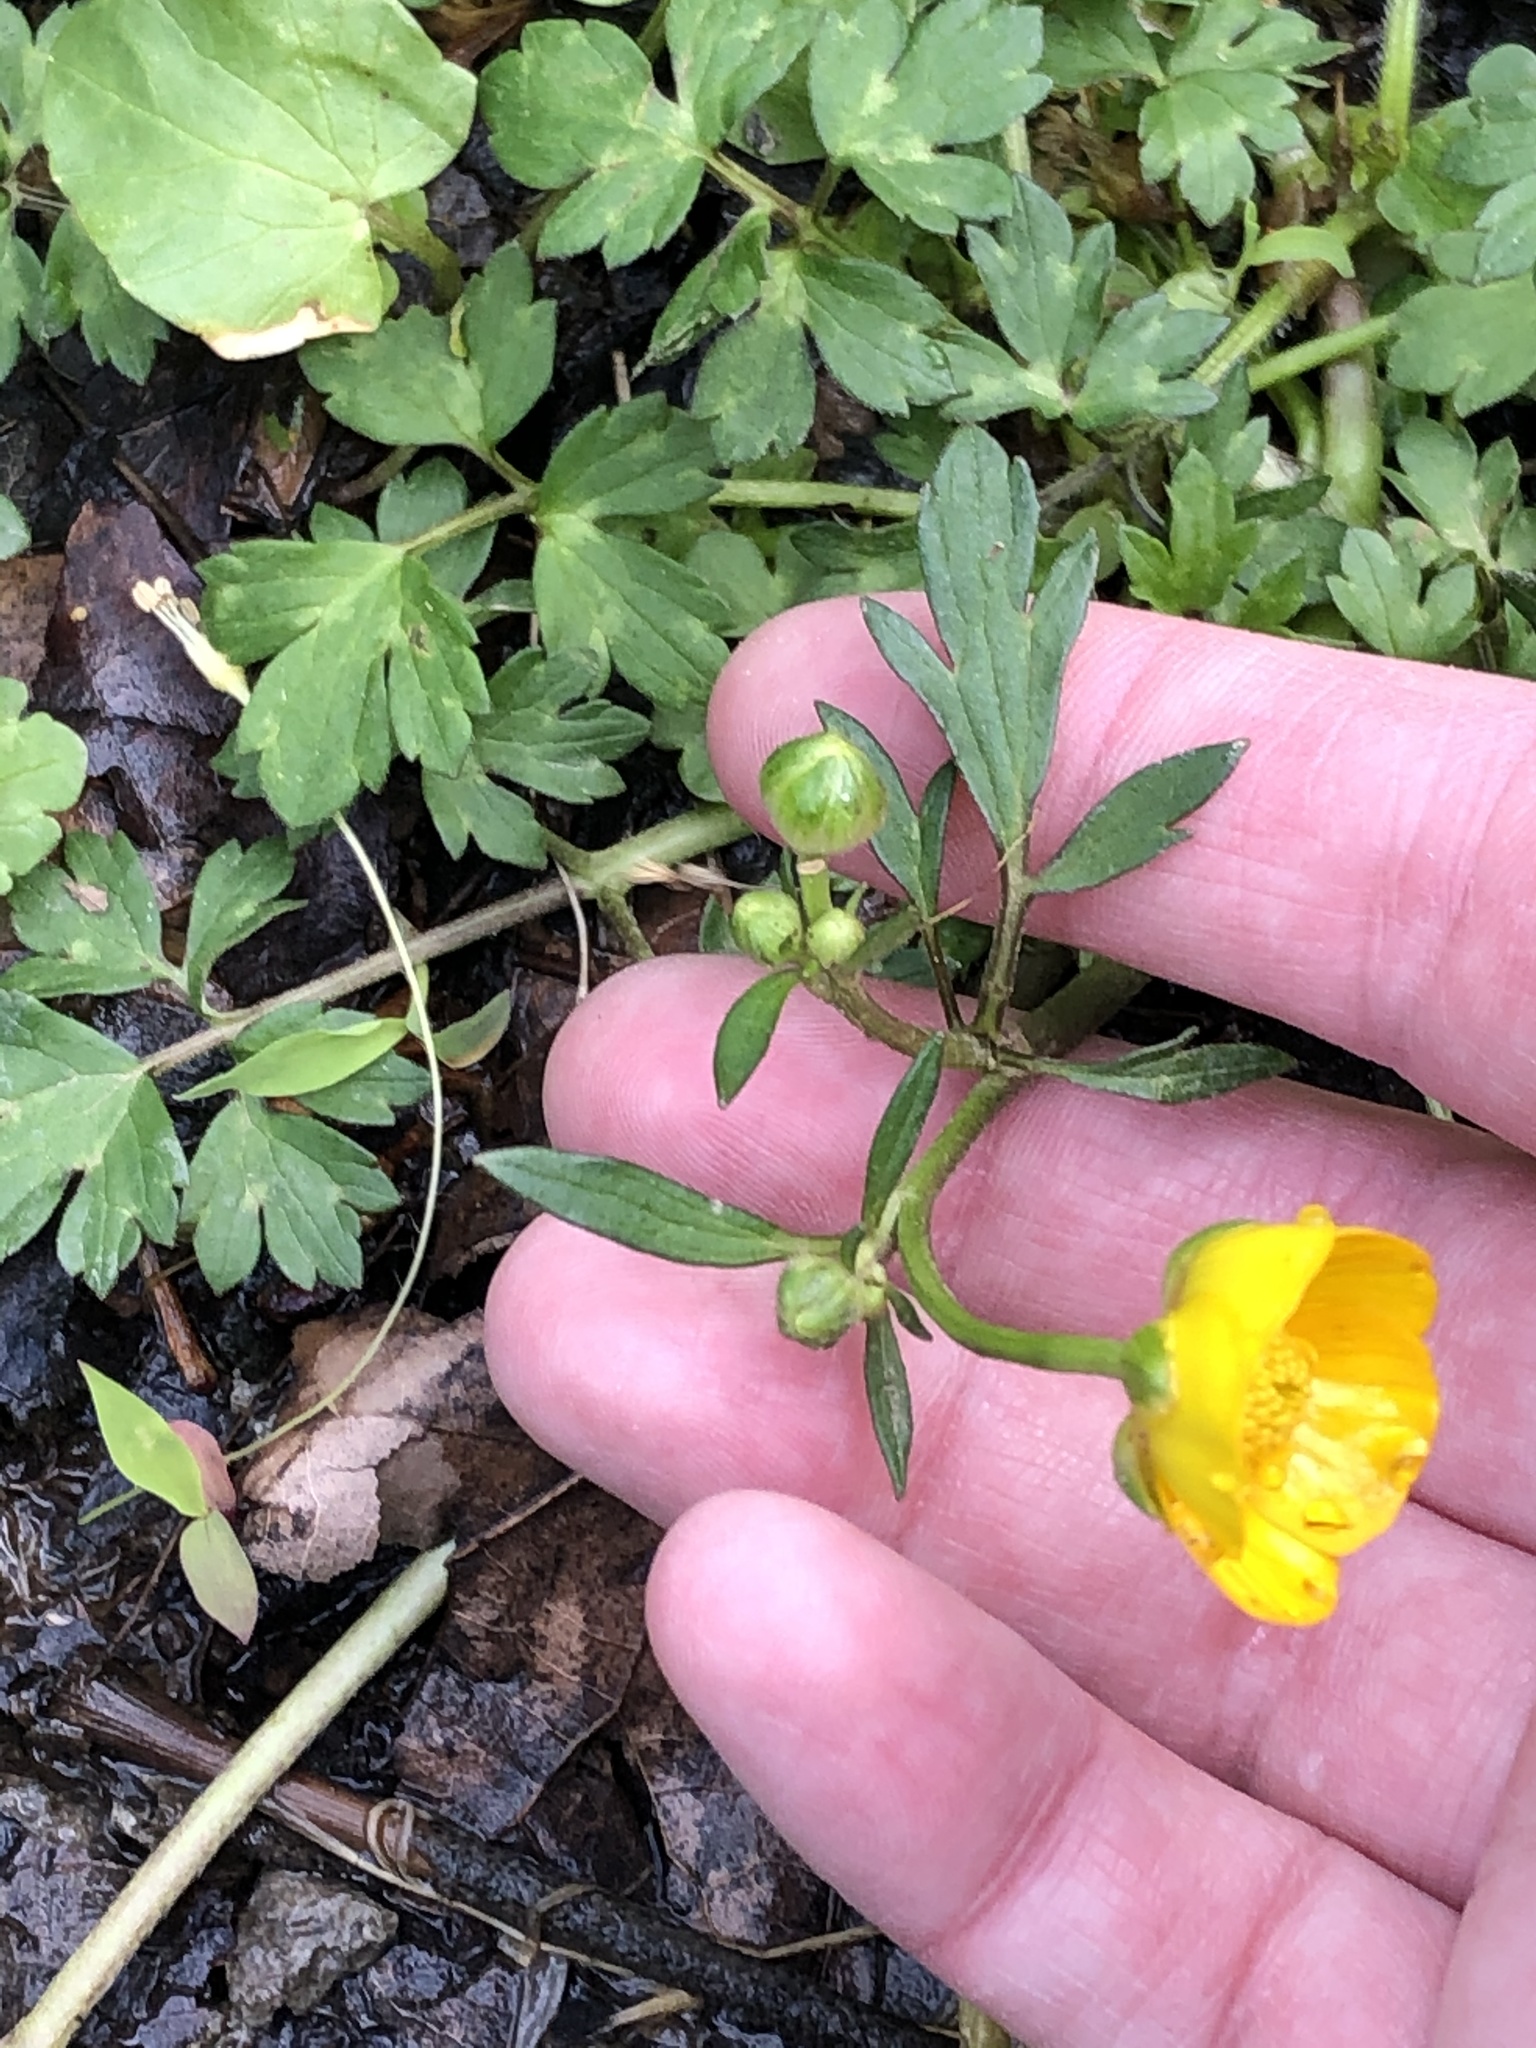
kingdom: Plantae
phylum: Tracheophyta
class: Magnoliopsida
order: Ranunculales
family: Ranunculaceae
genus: Ranunculus
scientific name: Ranunculus repens
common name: Creeping buttercup
